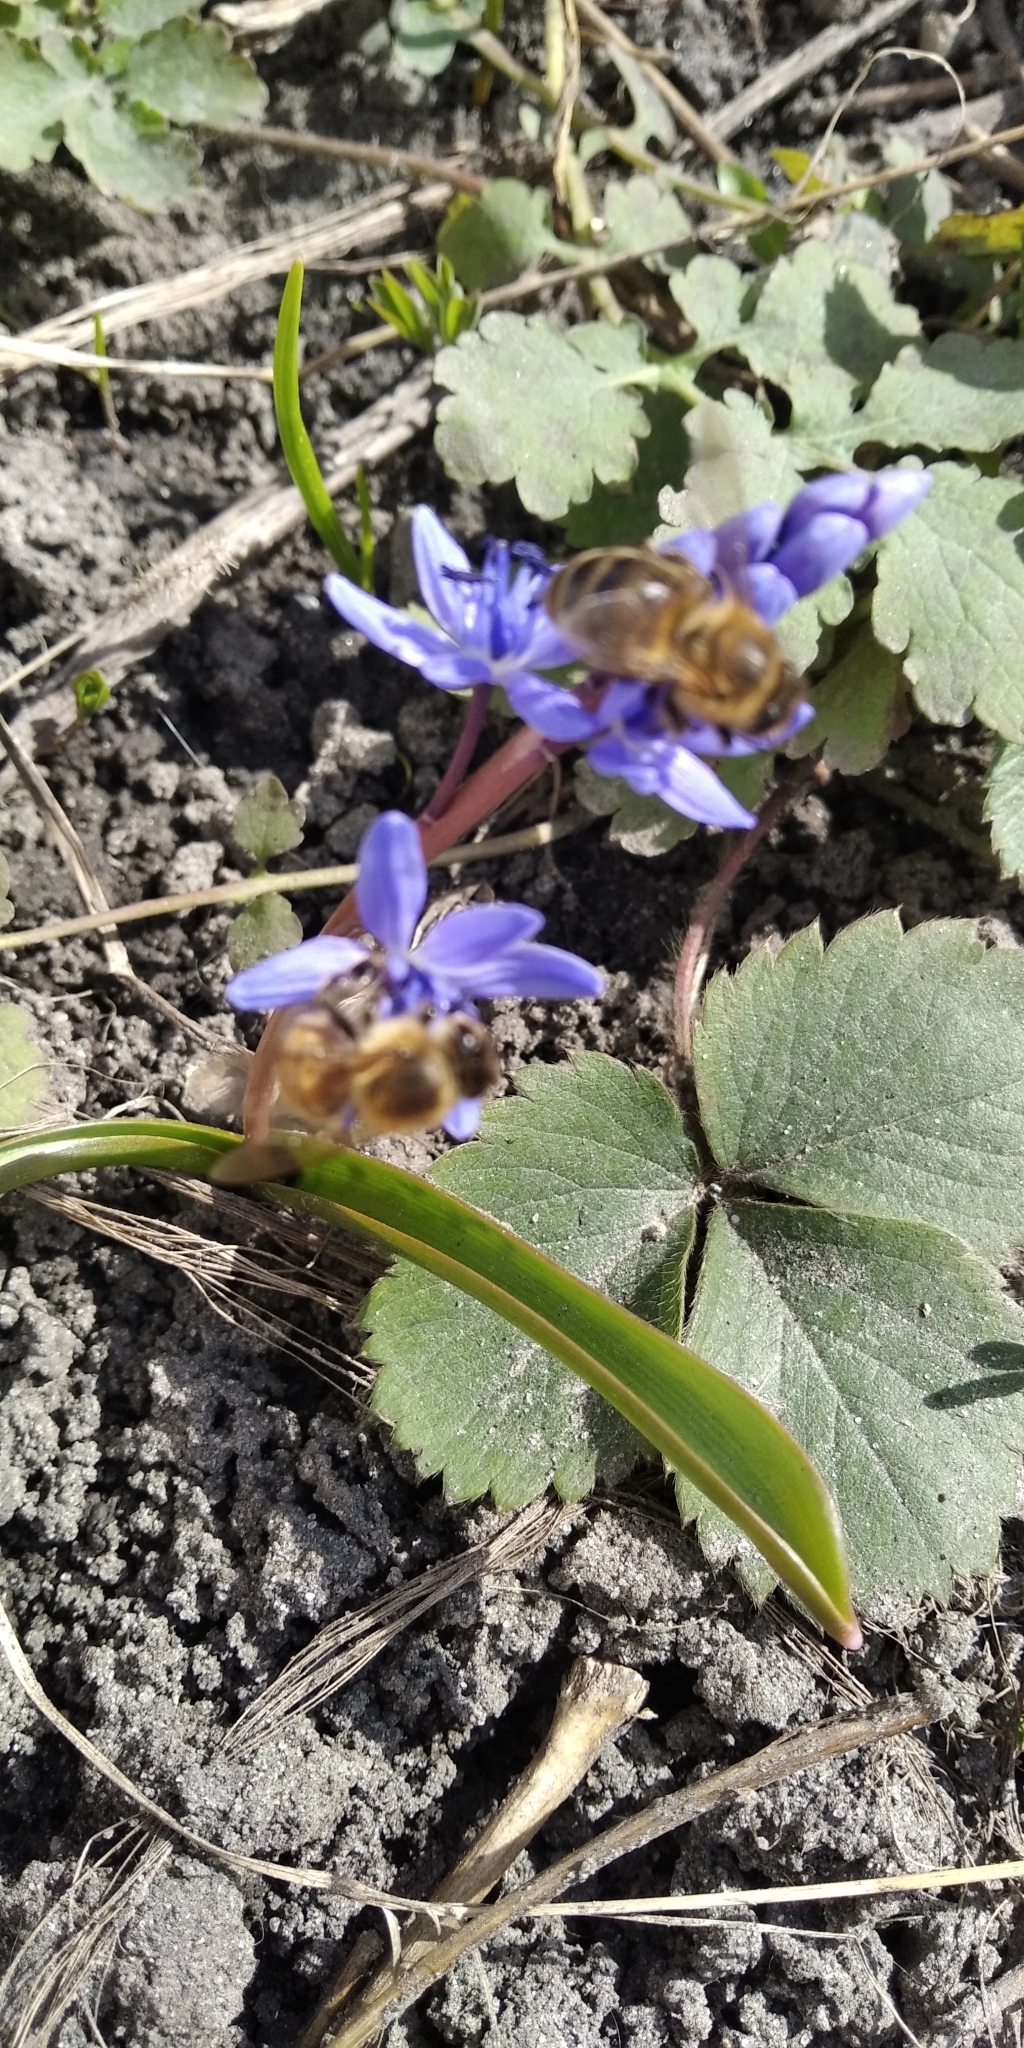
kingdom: Animalia
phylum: Arthropoda
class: Insecta
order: Hymenoptera
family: Apidae
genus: Apis
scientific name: Apis mellifera
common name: Honey bee
